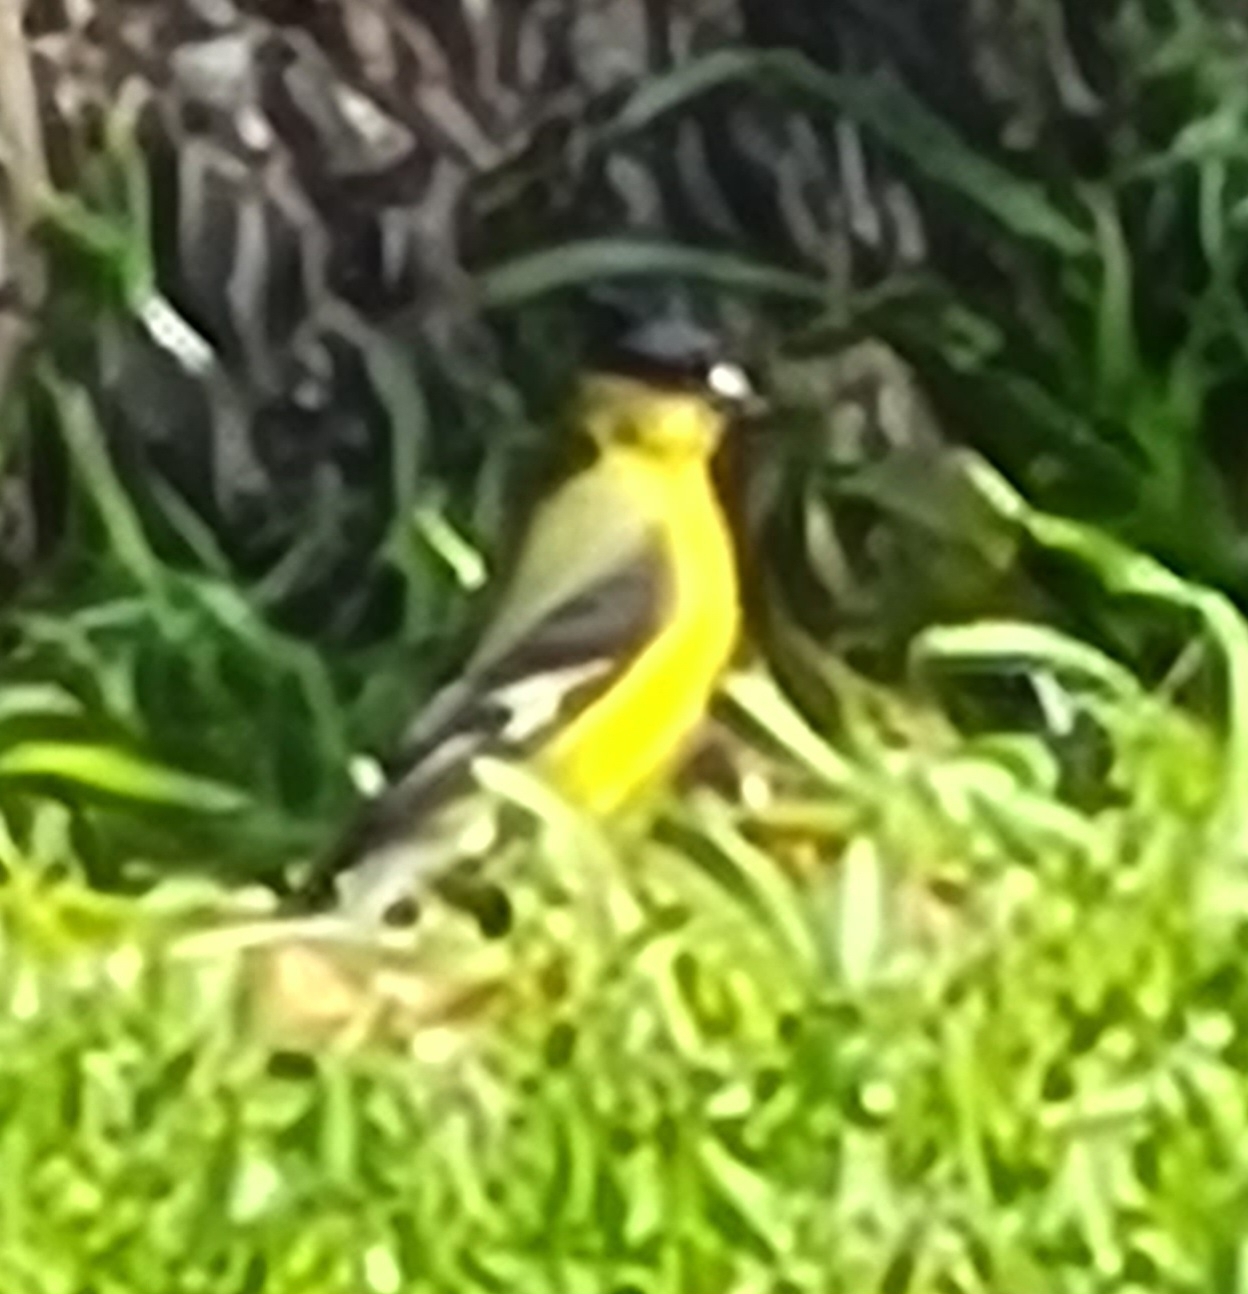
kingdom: Animalia
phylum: Chordata
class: Aves
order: Passeriformes
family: Fringillidae
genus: Spinus
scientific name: Spinus psaltria
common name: Lesser goldfinch
